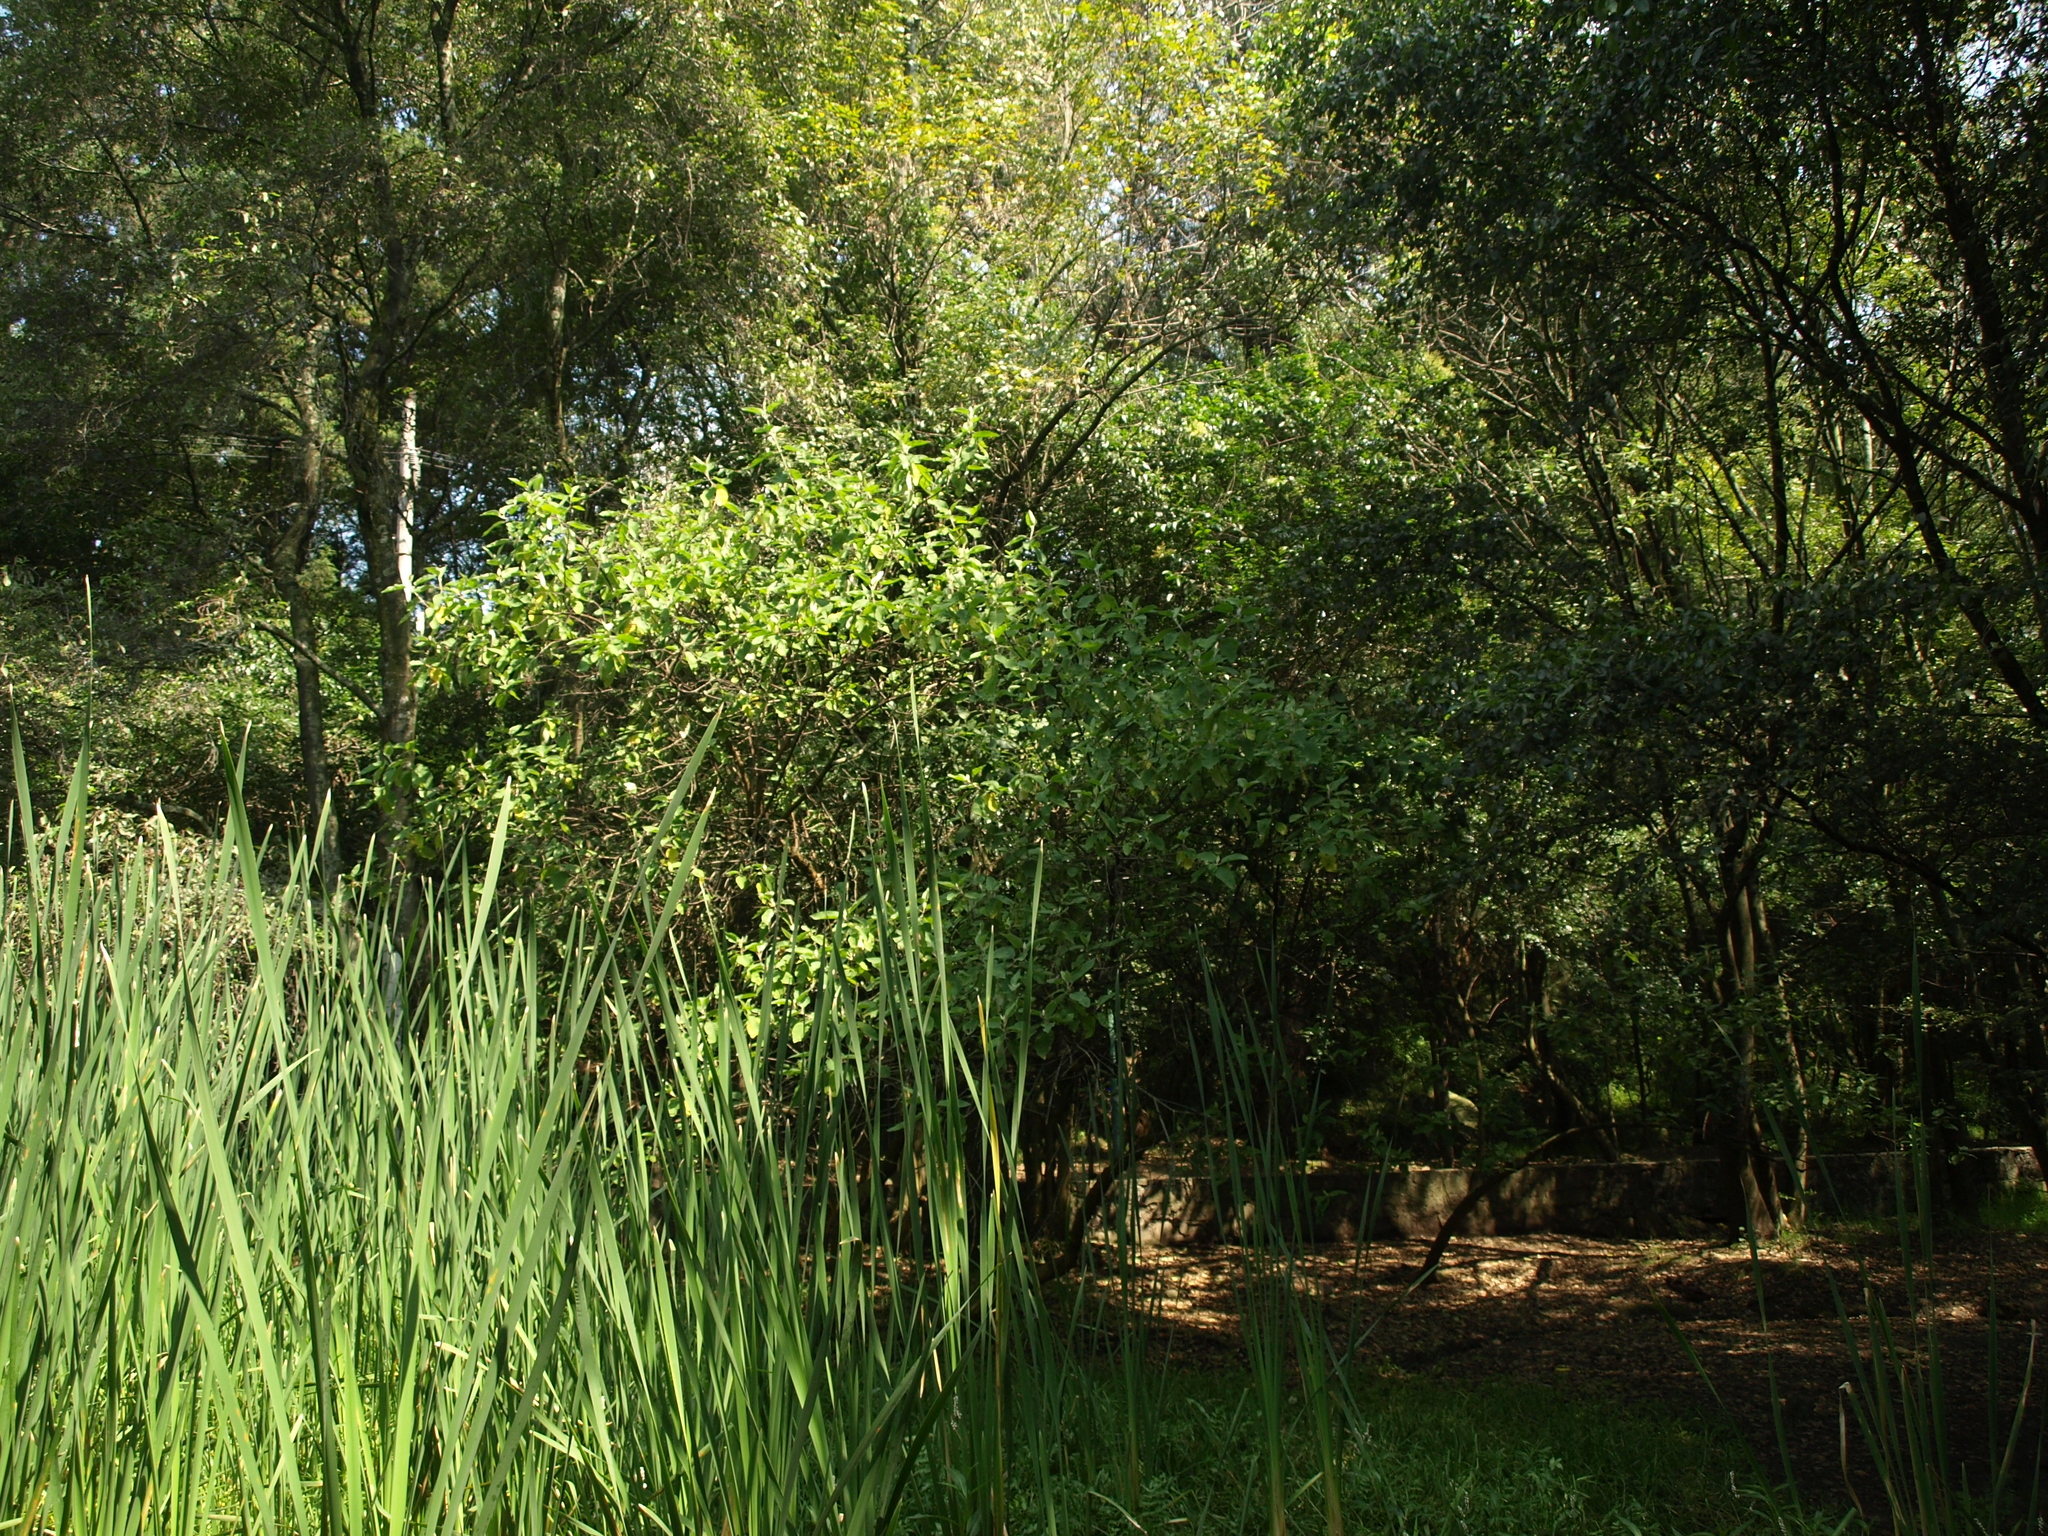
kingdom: Plantae
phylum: Tracheophyta
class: Magnoliopsida
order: Lamiales
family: Scrophulariaceae
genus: Buddleja
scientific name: Buddleja cordata
